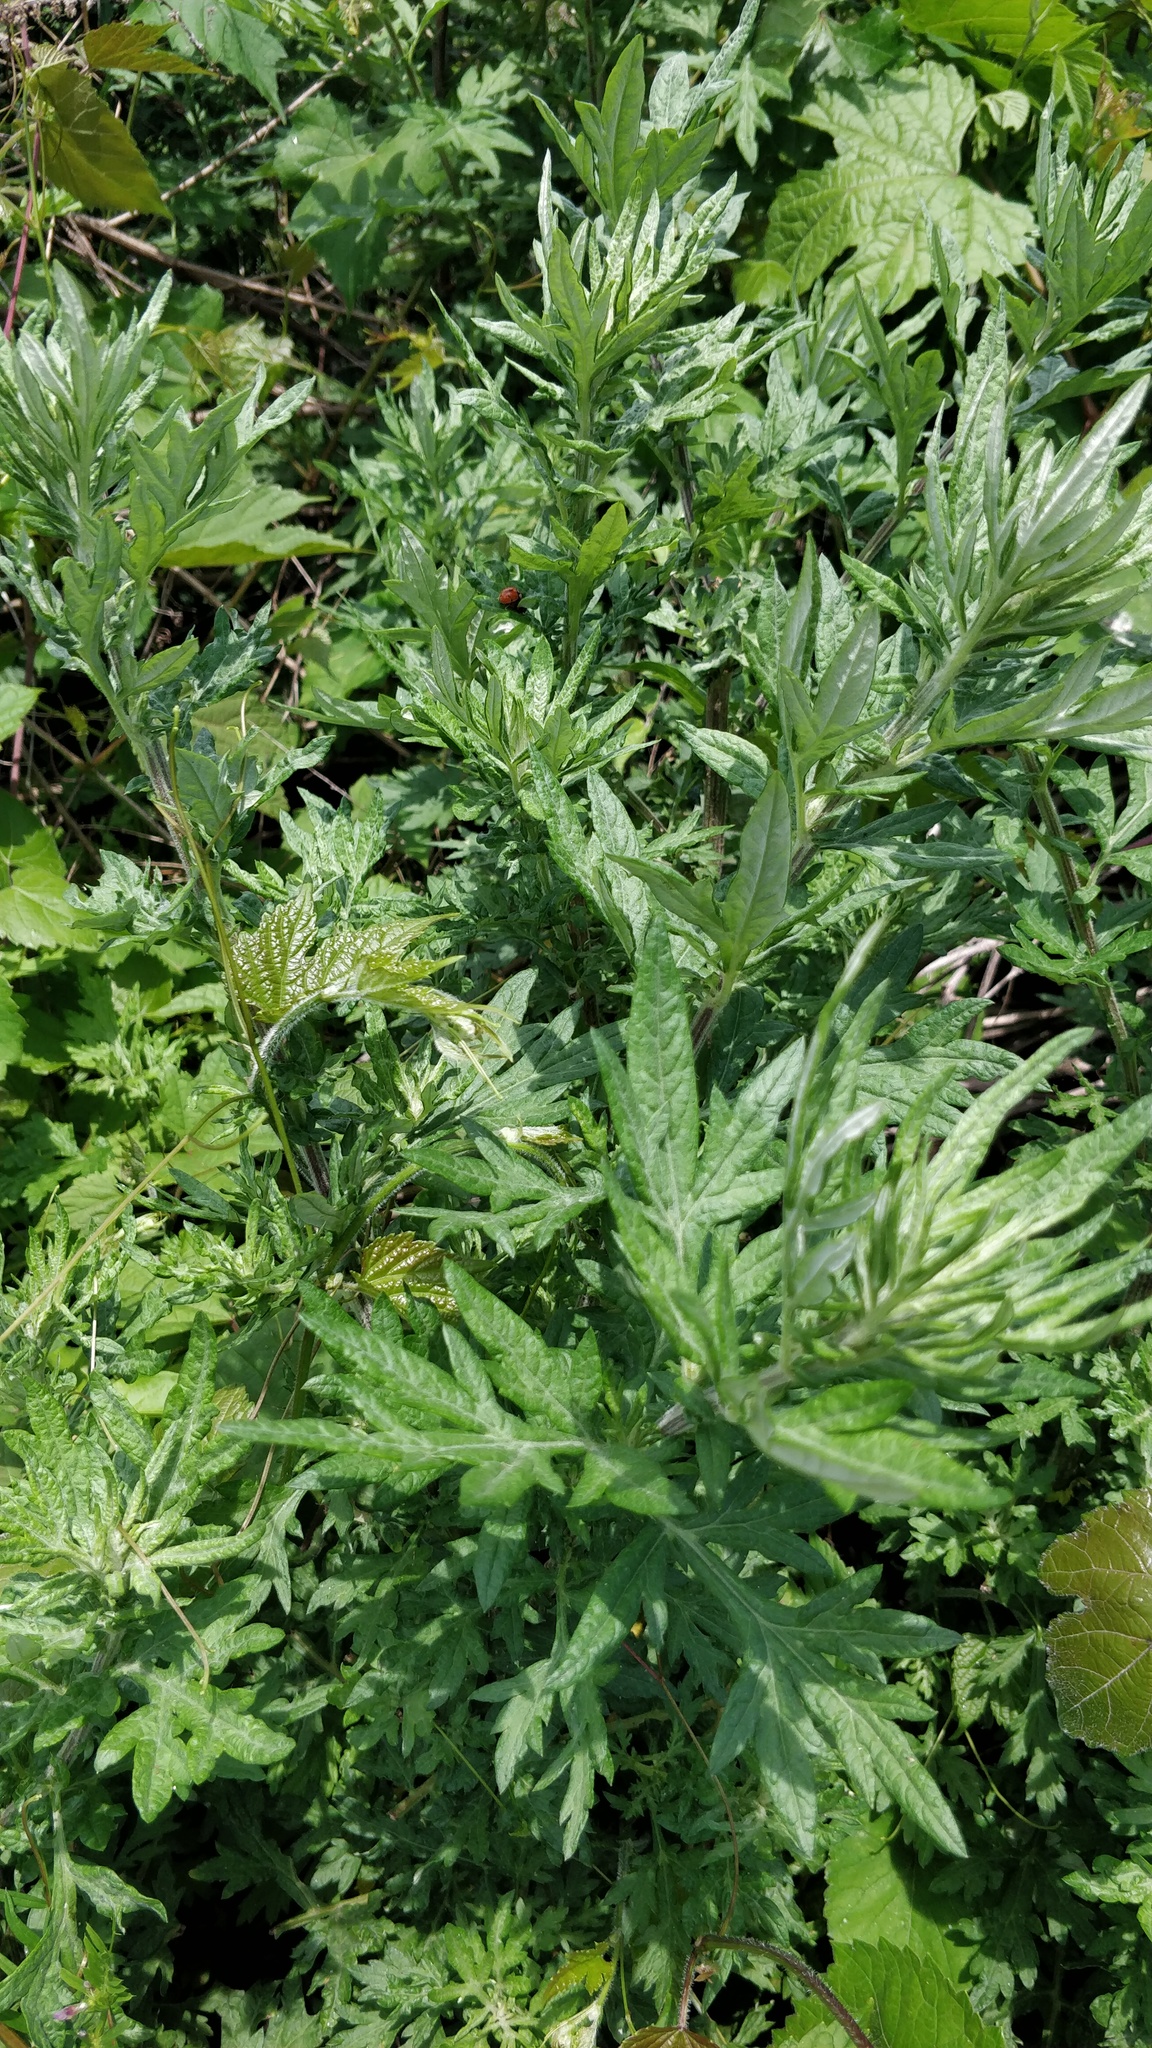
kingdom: Plantae
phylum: Tracheophyta
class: Magnoliopsida
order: Asterales
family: Asteraceae
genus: Artemisia
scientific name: Artemisia vulgaris
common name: Mugwort
